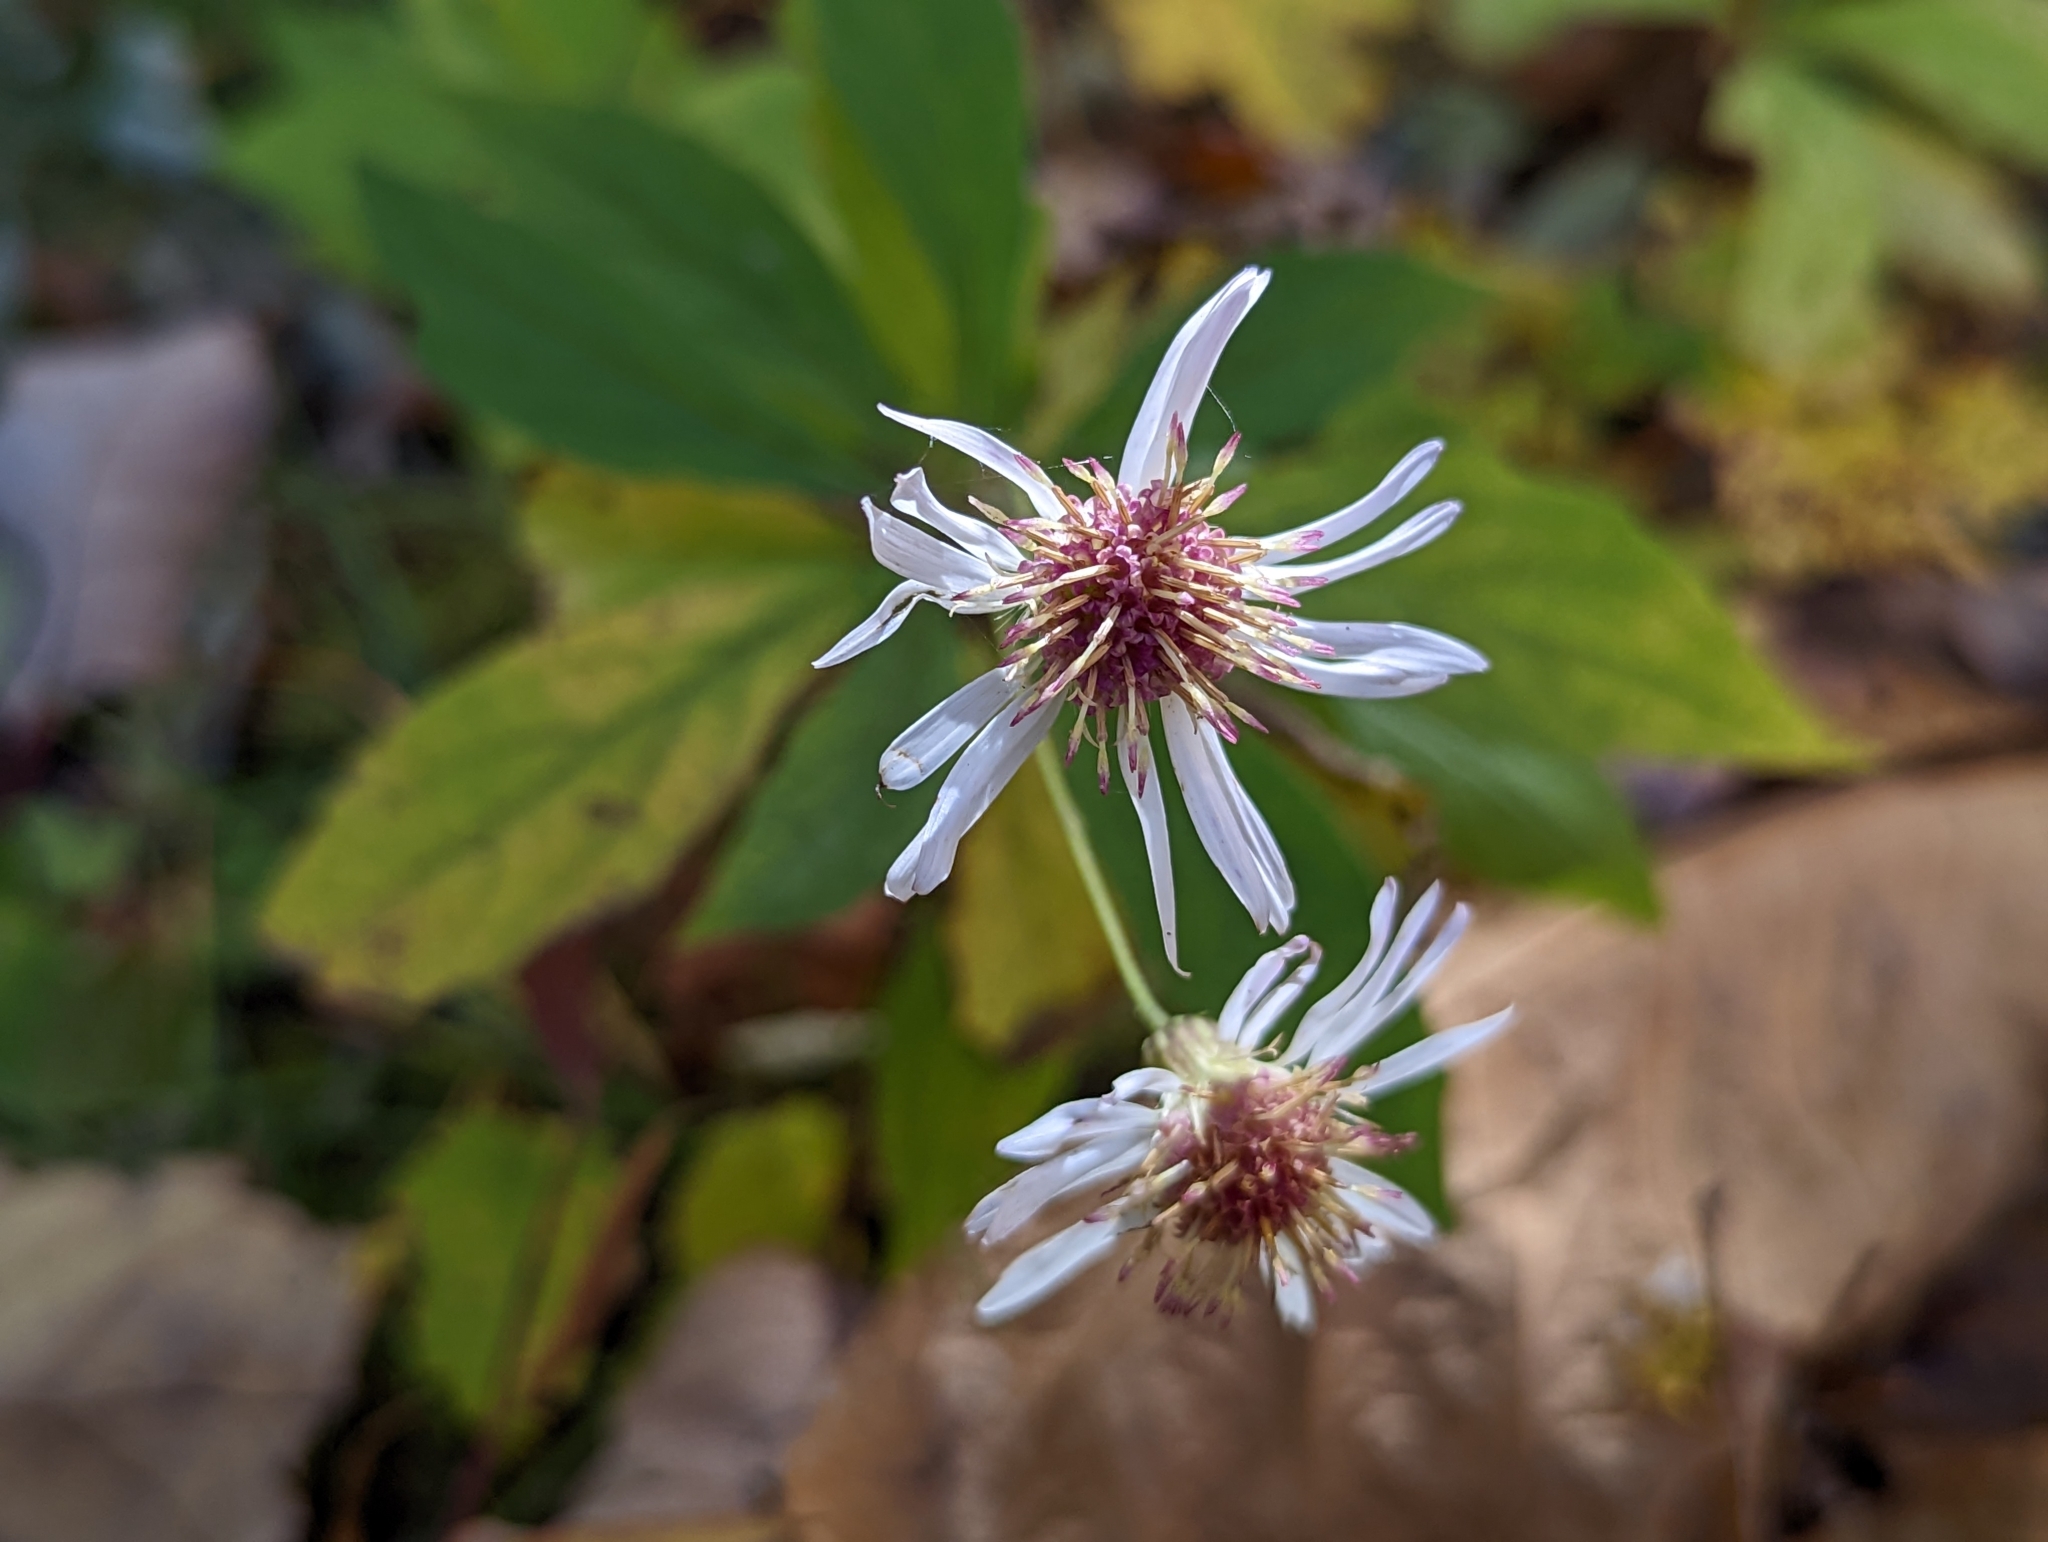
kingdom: Plantae
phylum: Tracheophyta
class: Magnoliopsida
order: Asterales
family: Asteraceae
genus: Oclemena
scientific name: Oclemena acuminata
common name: Mountain aster
